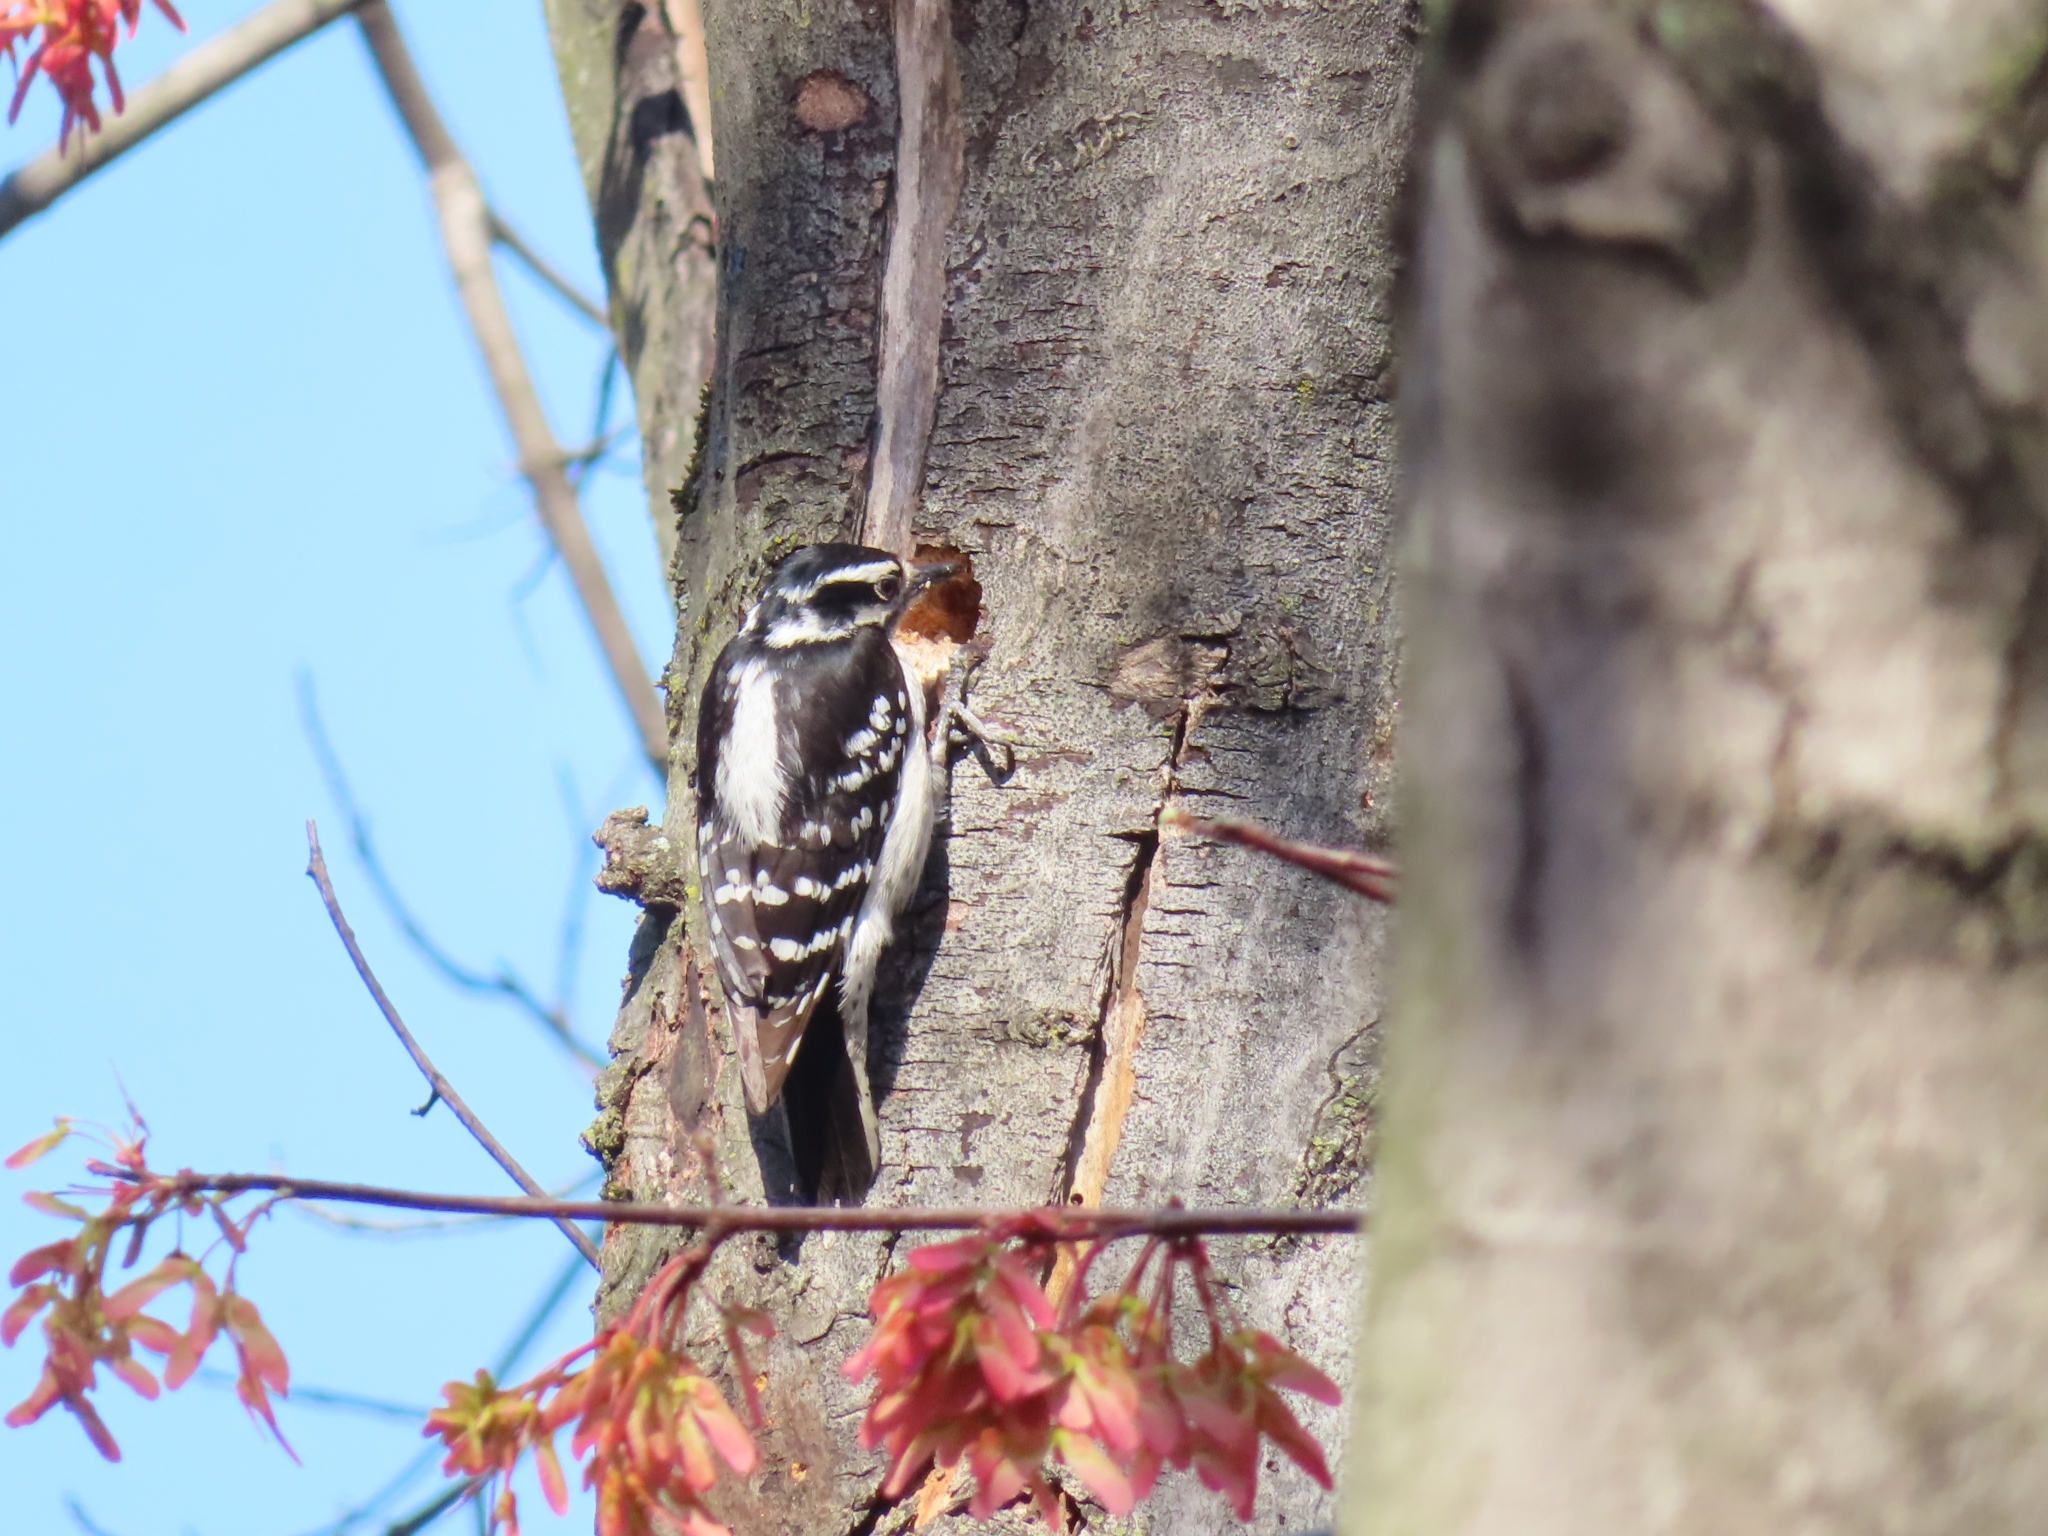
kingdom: Animalia
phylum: Chordata
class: Aves
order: Piciformes
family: Picidae
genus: Dryobates
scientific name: Dryobates pubescens
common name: Downy woodpecker
